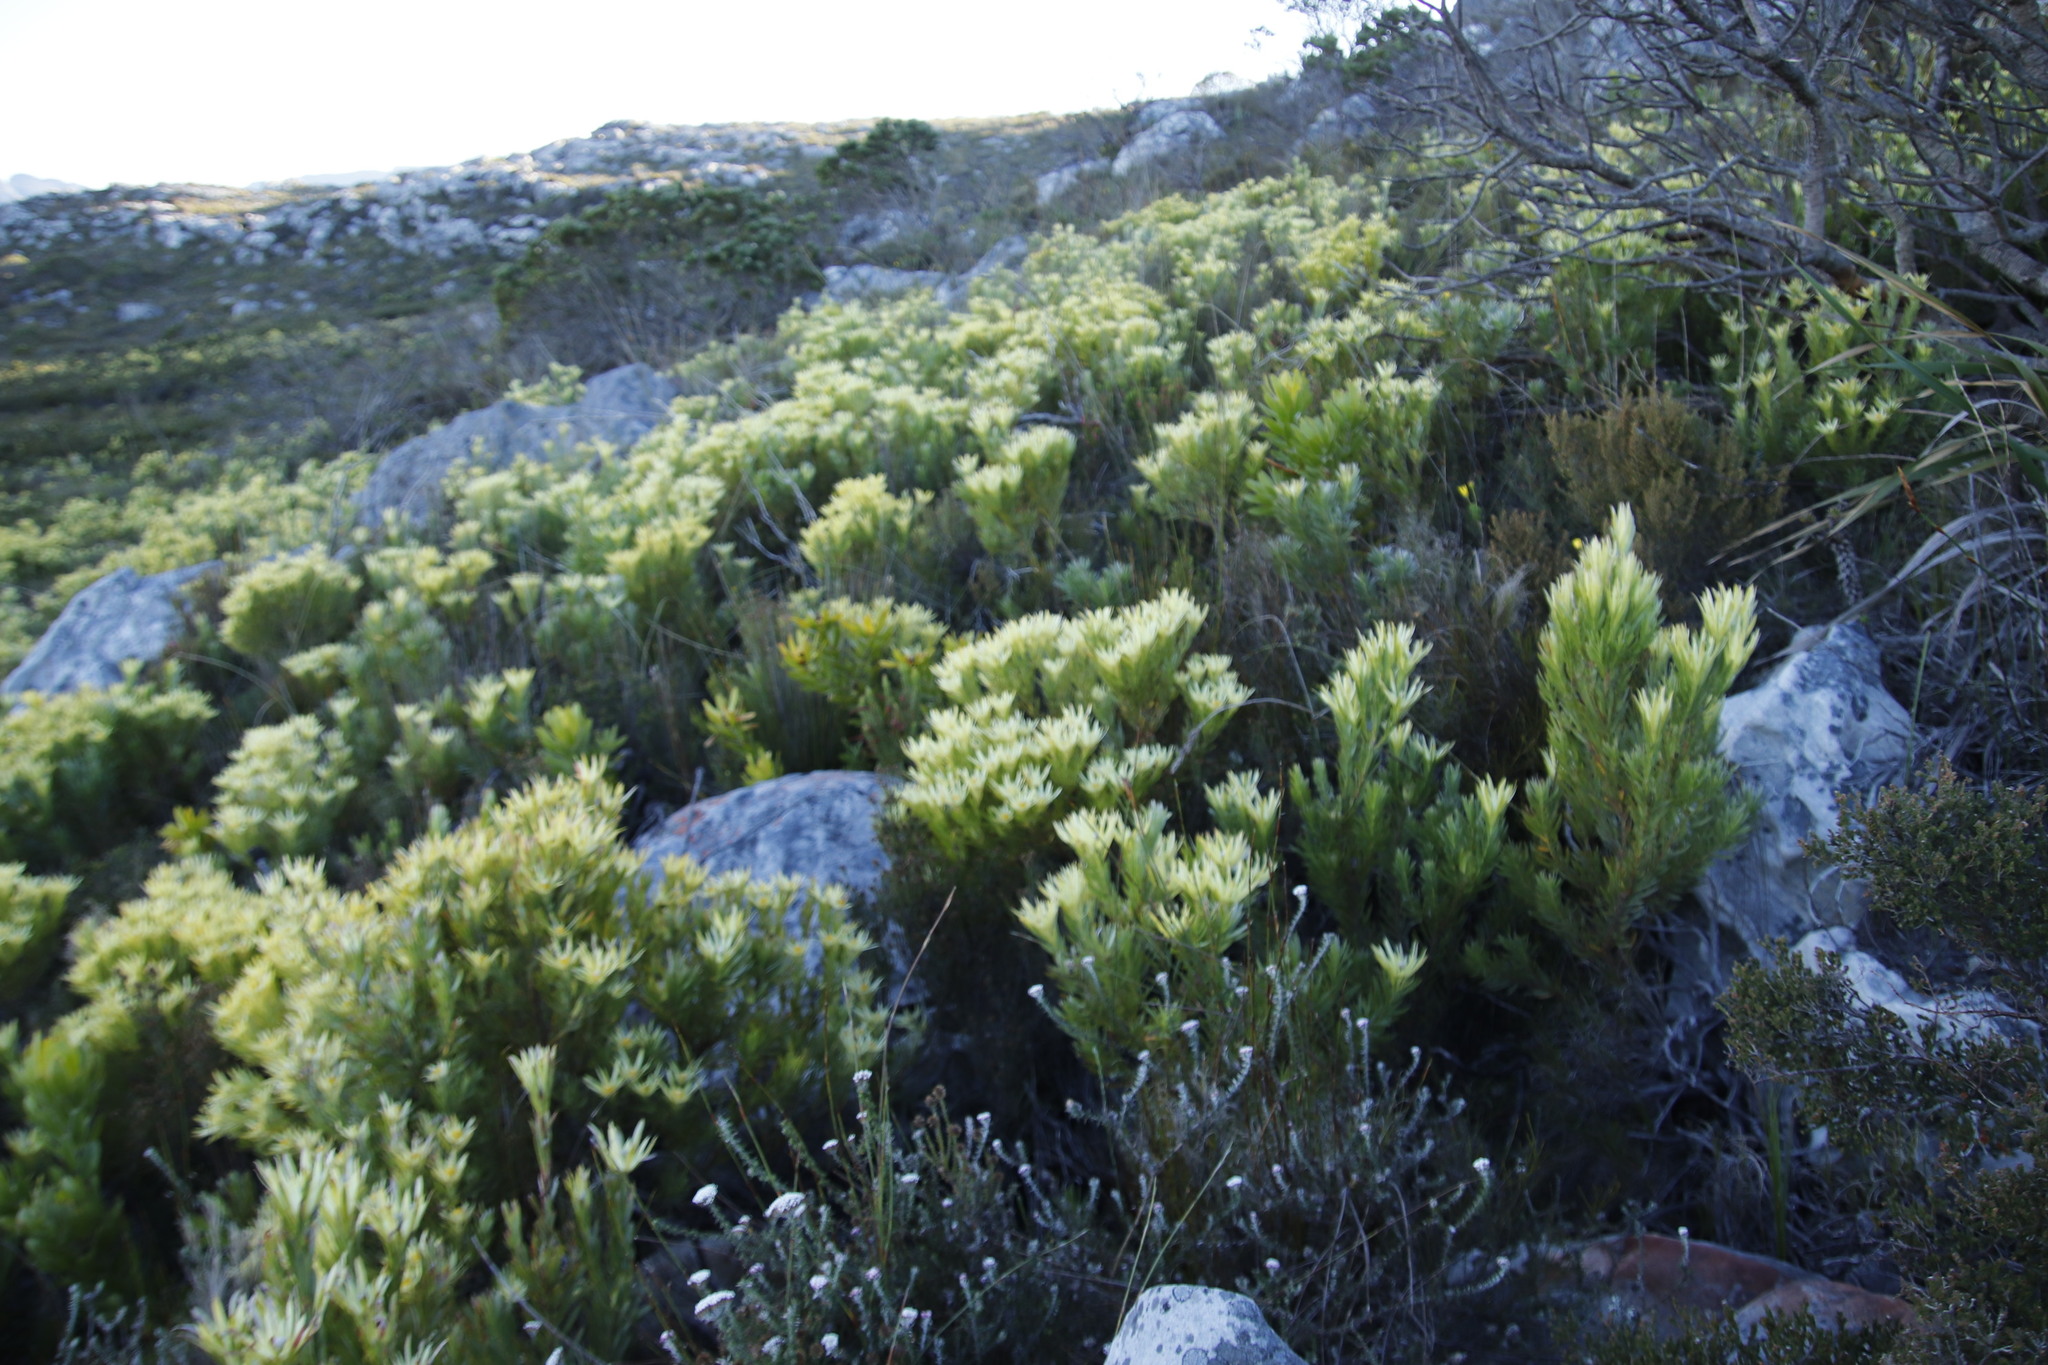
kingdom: Plantae
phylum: Tracheophyta
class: Magnoliopsida
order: Proteales
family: Proteaceae
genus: Leucadendron
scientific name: Leucadendron xanthoconus
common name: Sickle-leaf conebush
